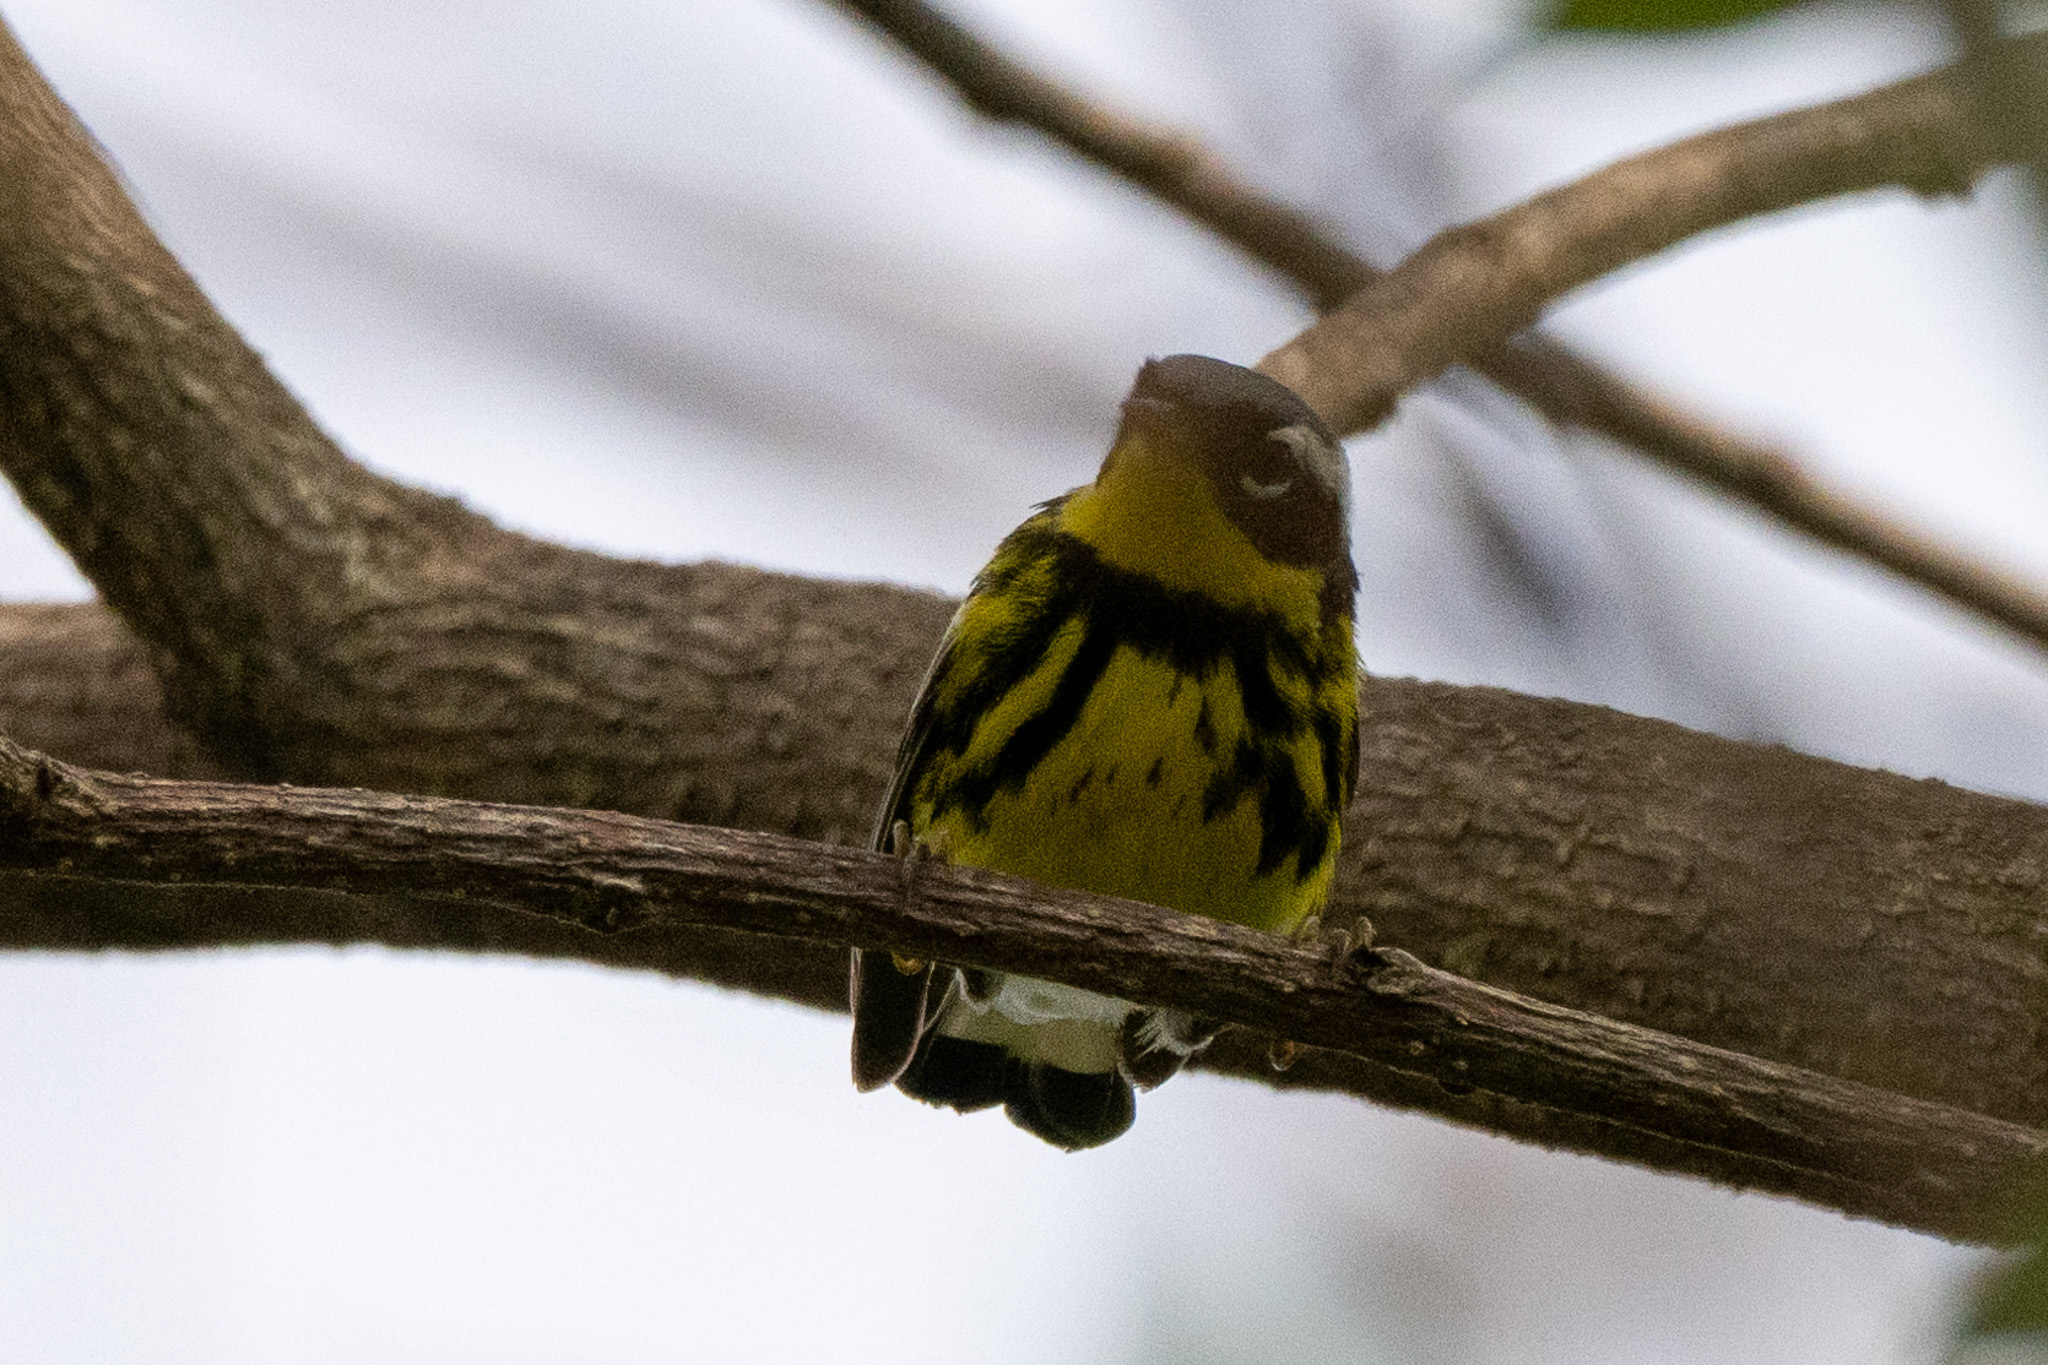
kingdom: Animalia
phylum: Chordata
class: Aves
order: Passeriformes
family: Parulidae
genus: Setophaga
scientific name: Setophaga magnolia
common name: Magnolia warbler
